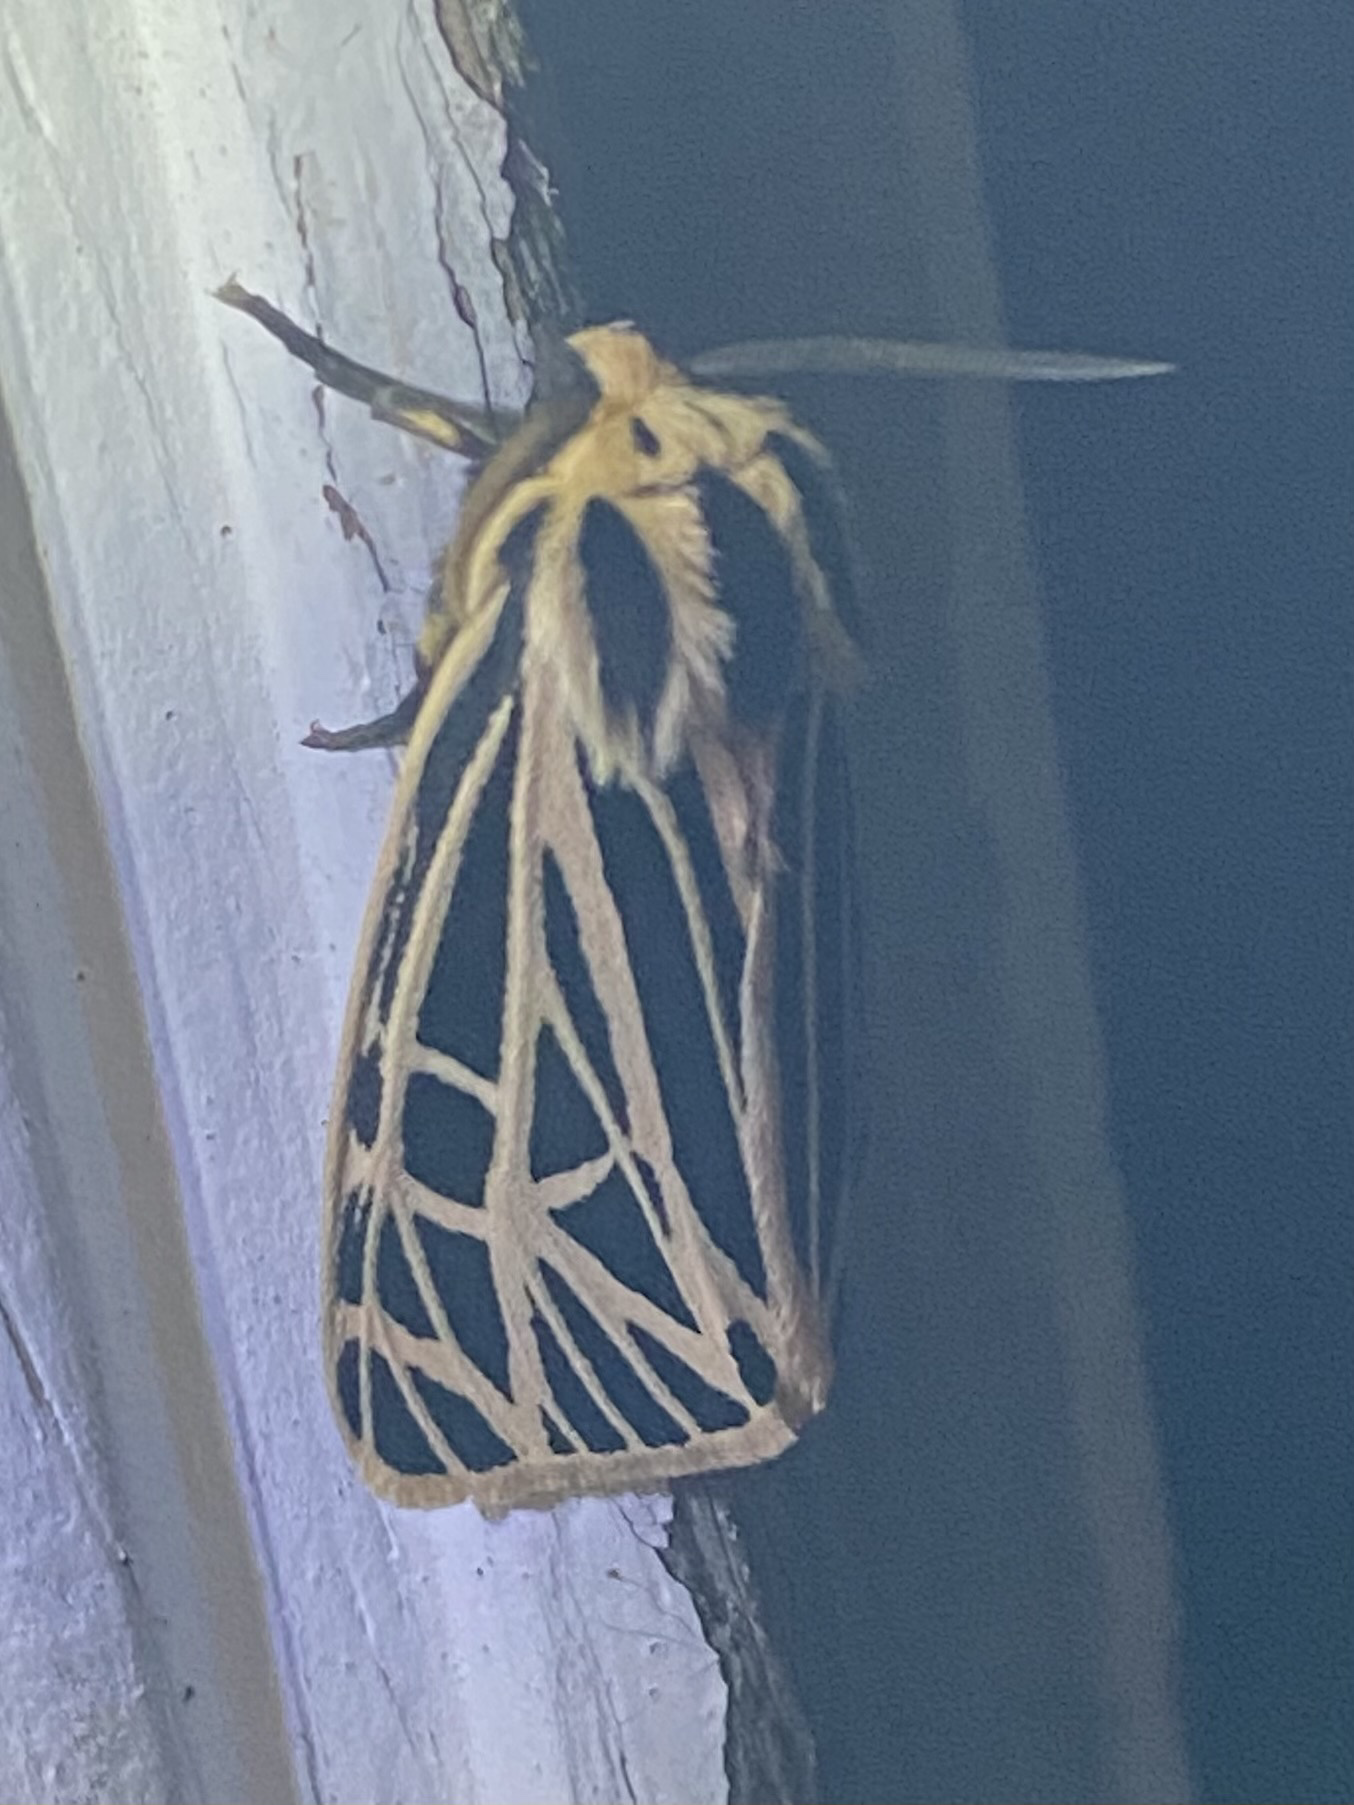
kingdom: Animalia
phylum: Arthropoda
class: Insecta
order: Lepidoptera
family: Erebidae
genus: Grammia
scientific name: Grammia virgo
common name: Virgin tiger moth
